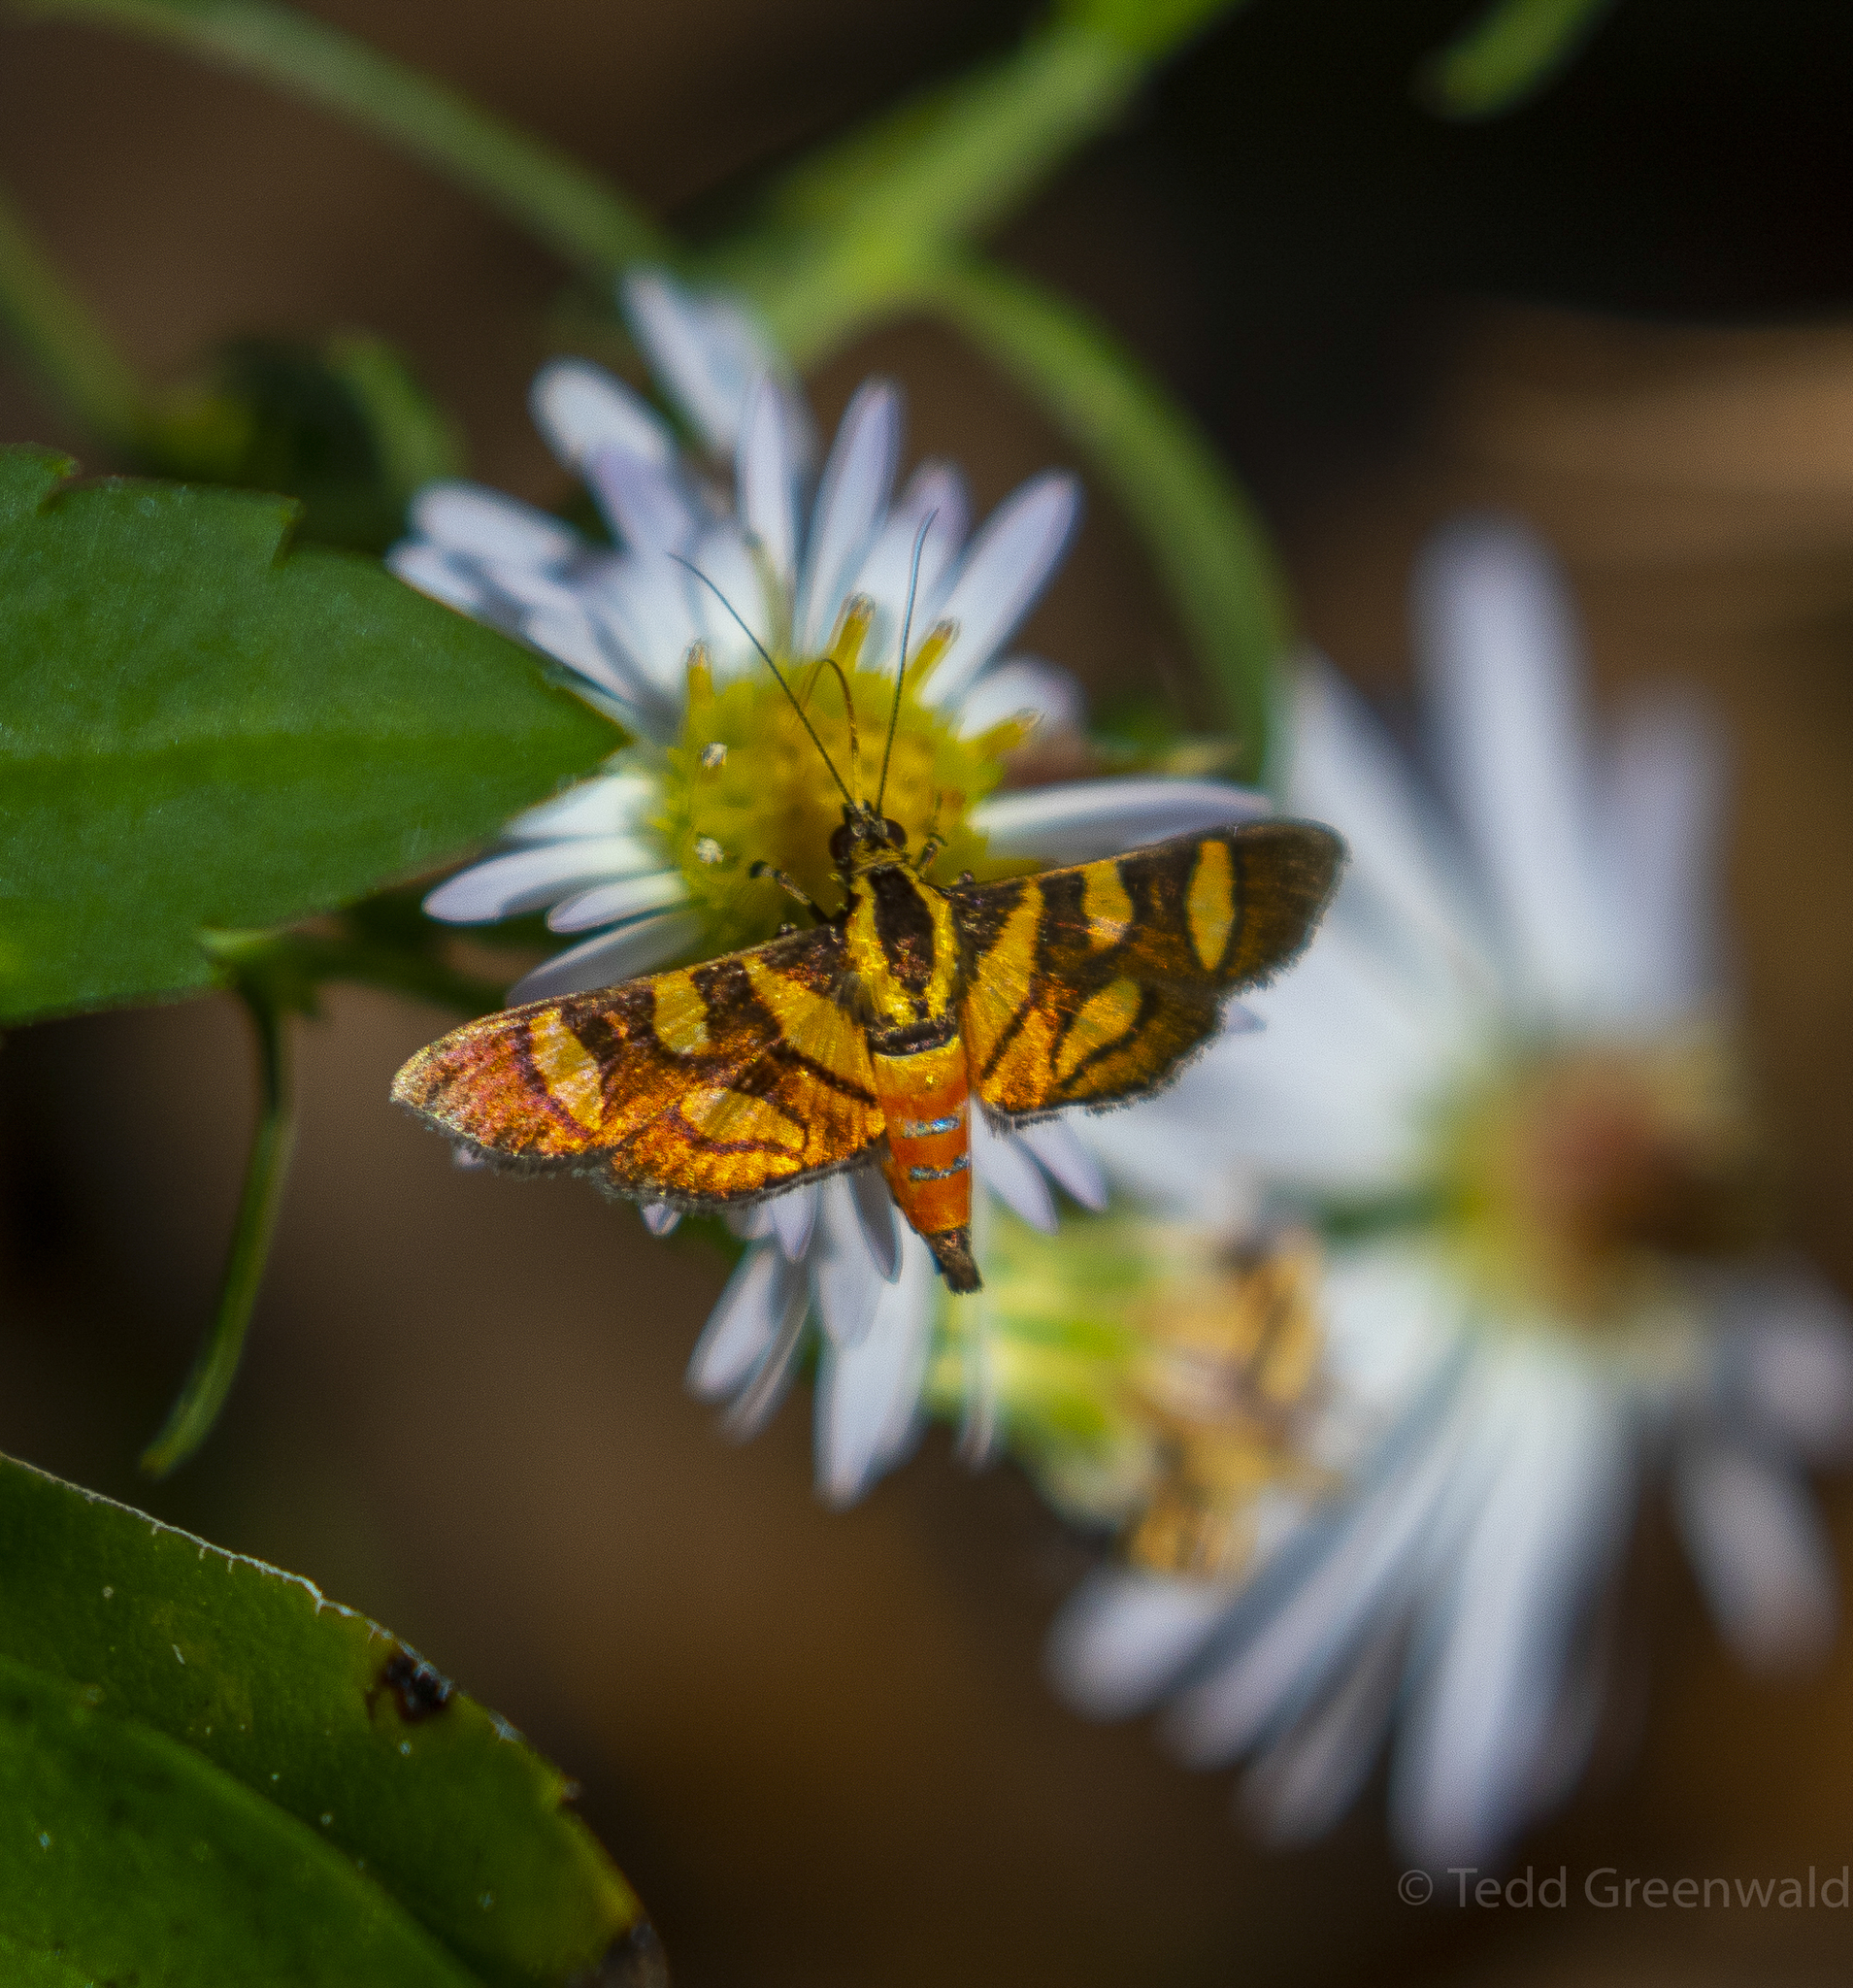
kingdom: Animalia
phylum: Arthropoda
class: Insecta
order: Lepidoptera
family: Crambidae
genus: Syngamia
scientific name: Syngamia florella
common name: Orange-spotted flower moth
